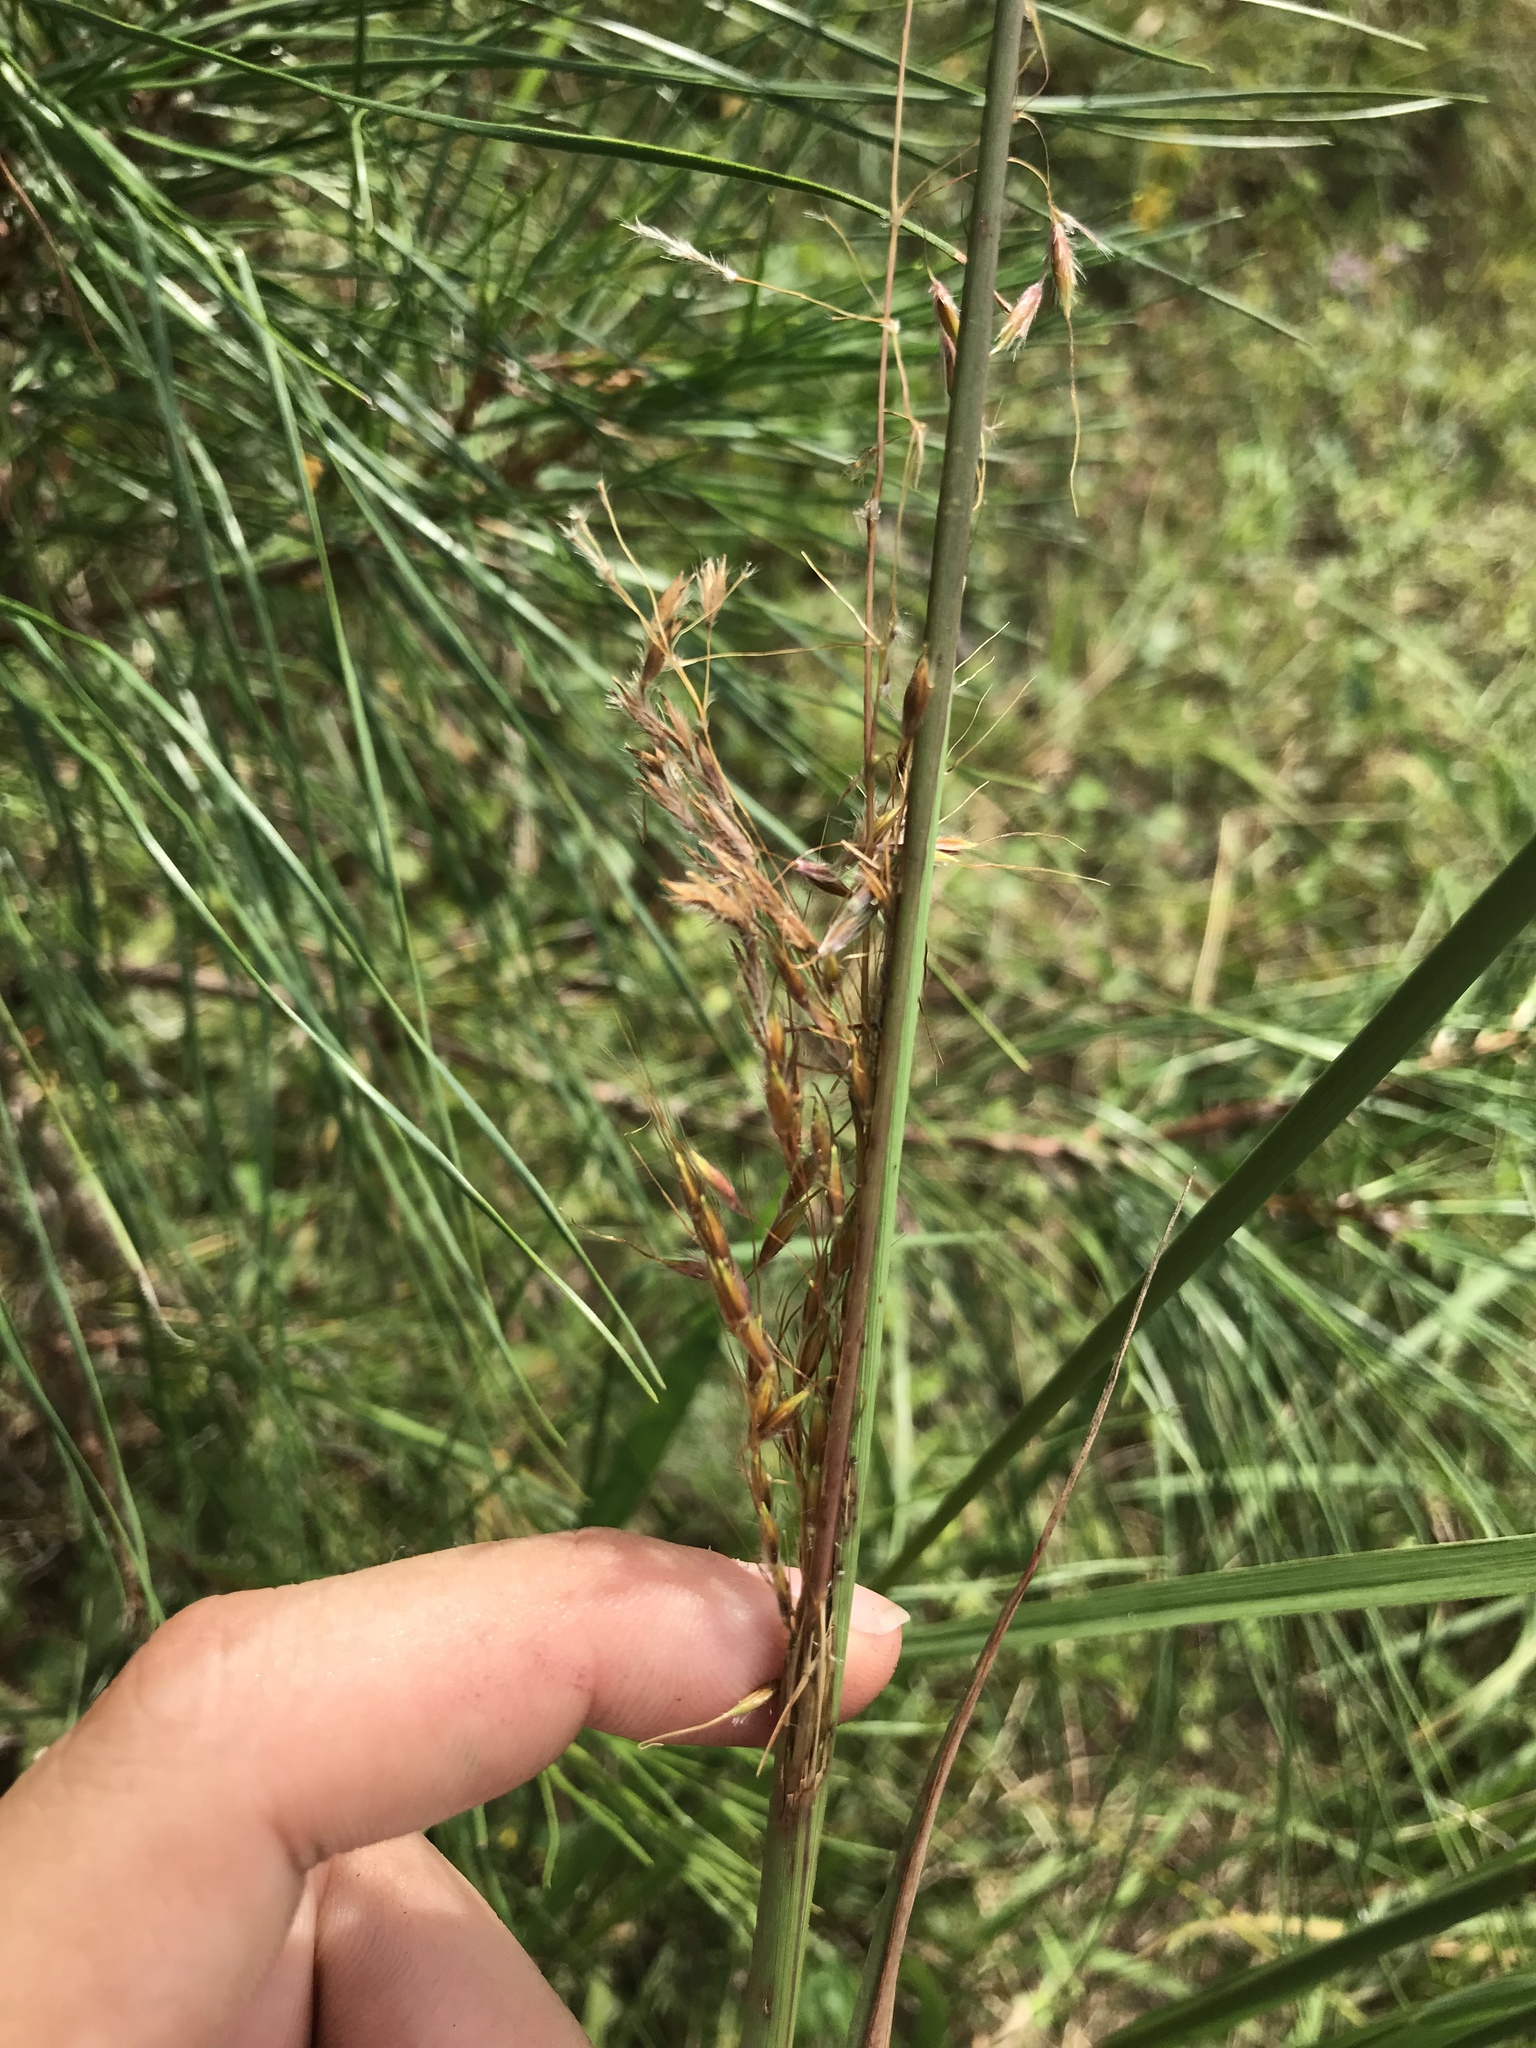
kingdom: Plantae
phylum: Tracheophyta
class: Liliopsida
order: Poales
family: Poaceae
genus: Sorghastrum
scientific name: Sorghastrum nutans
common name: Indian grass
